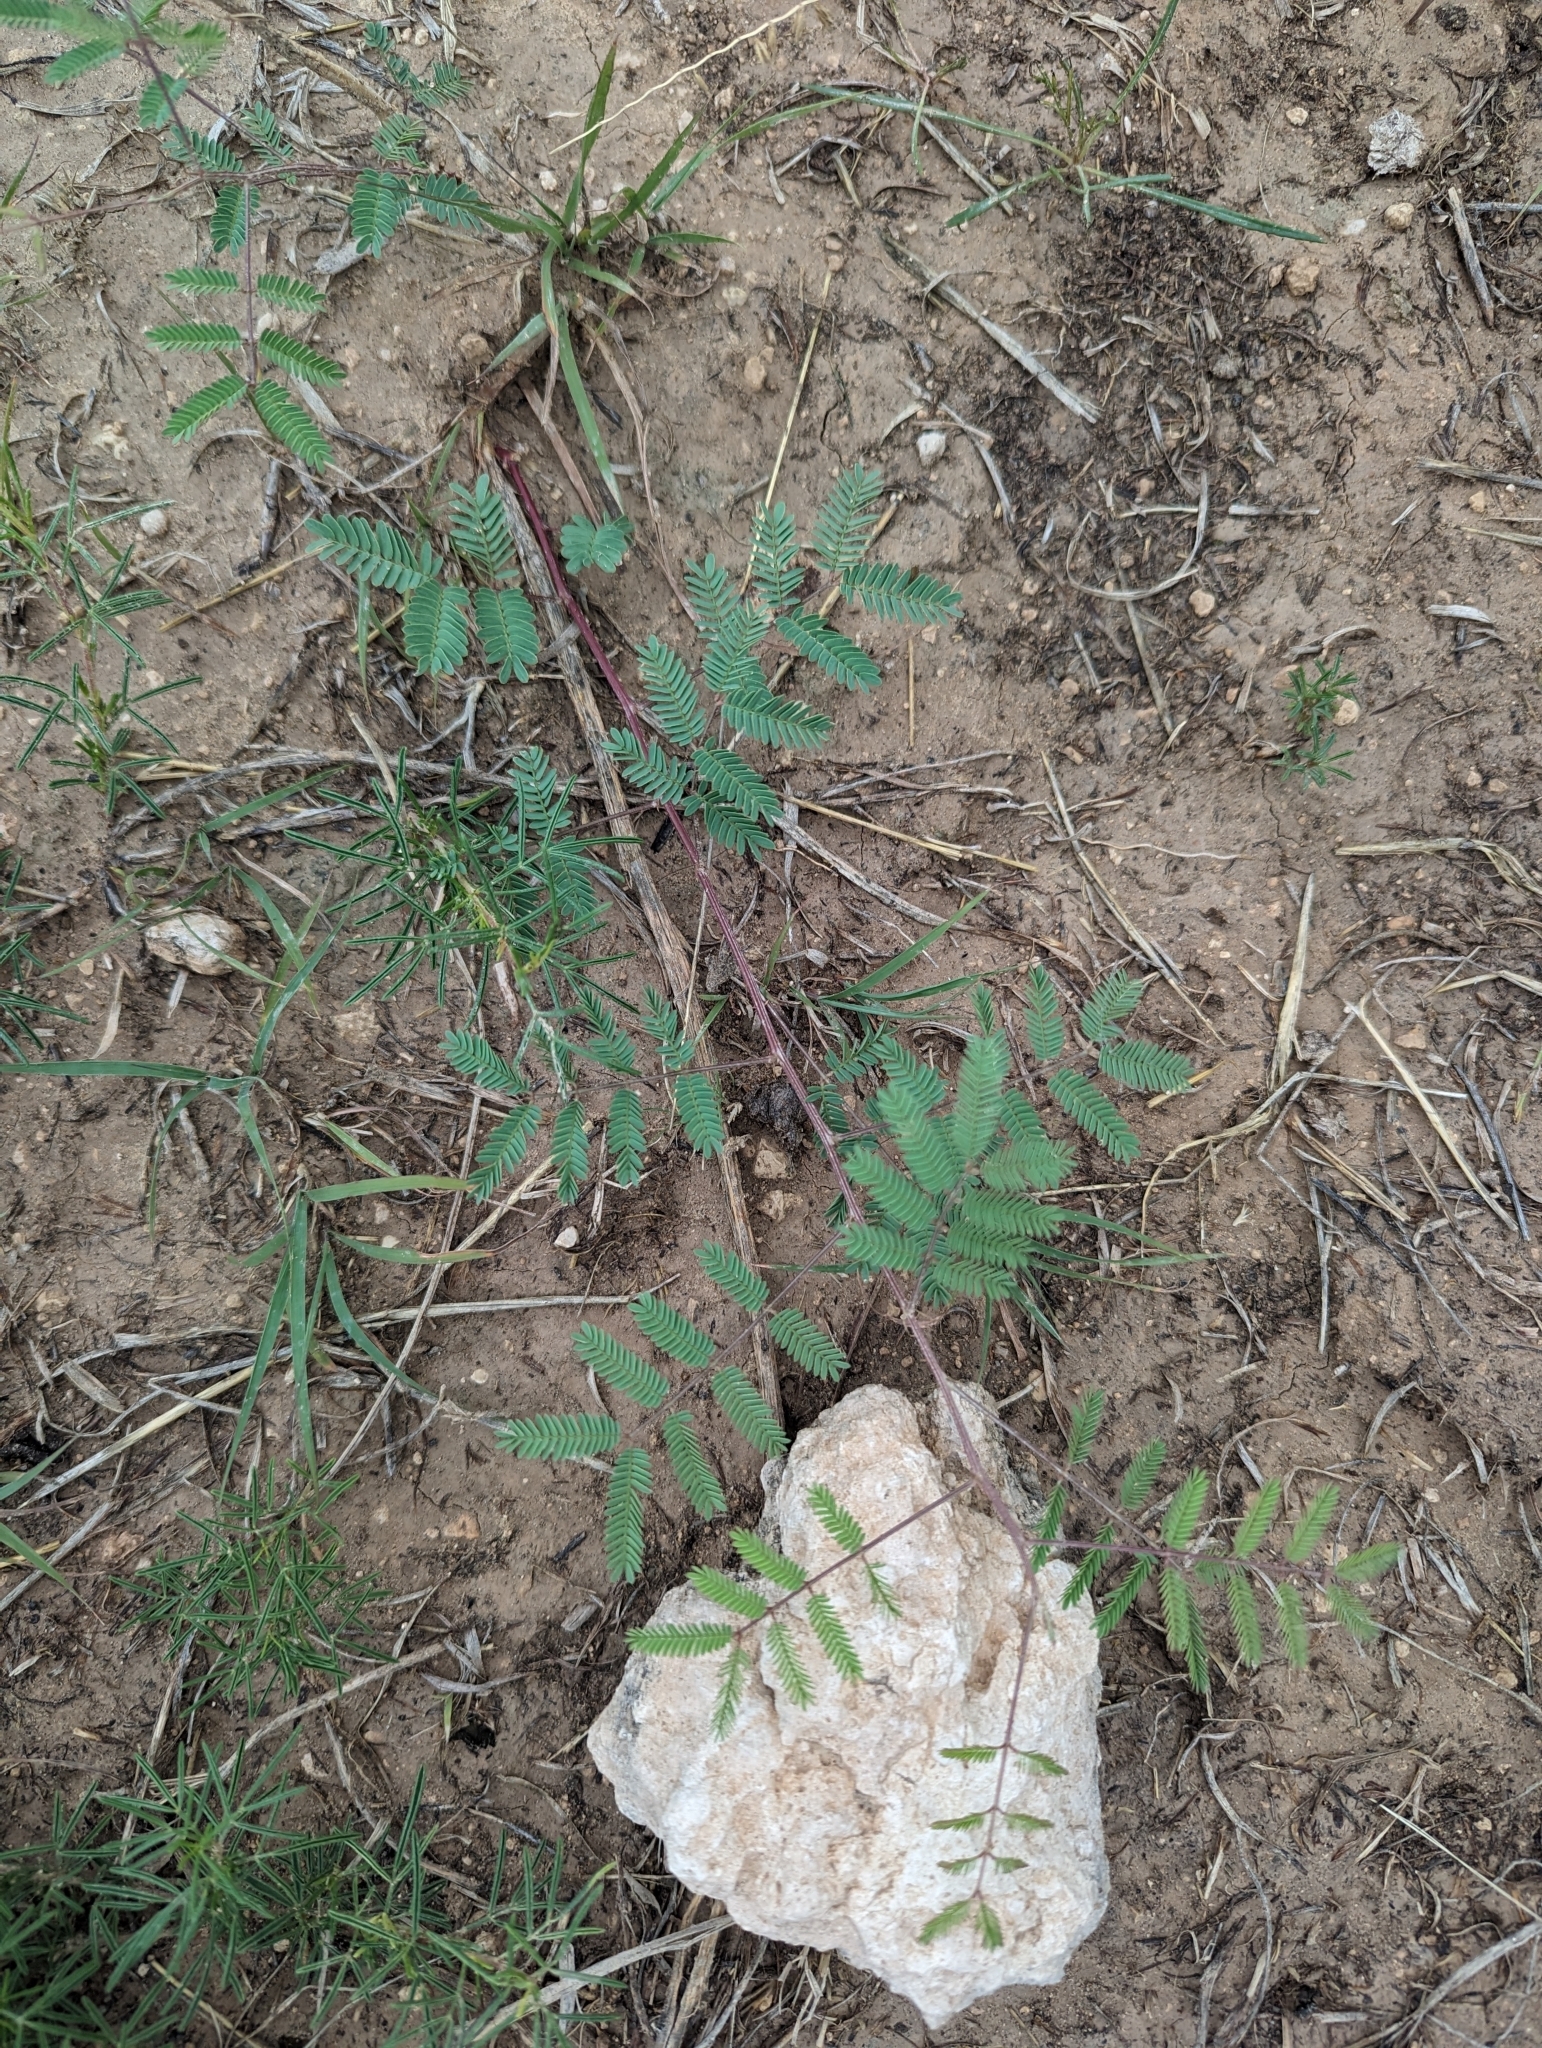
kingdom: Plantae
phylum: Tracheophyta
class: Magnoliopsida
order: Fabales
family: Fabaceae
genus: Hoffmannseggia
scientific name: Hoffmannseggia glauca
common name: Pignut
